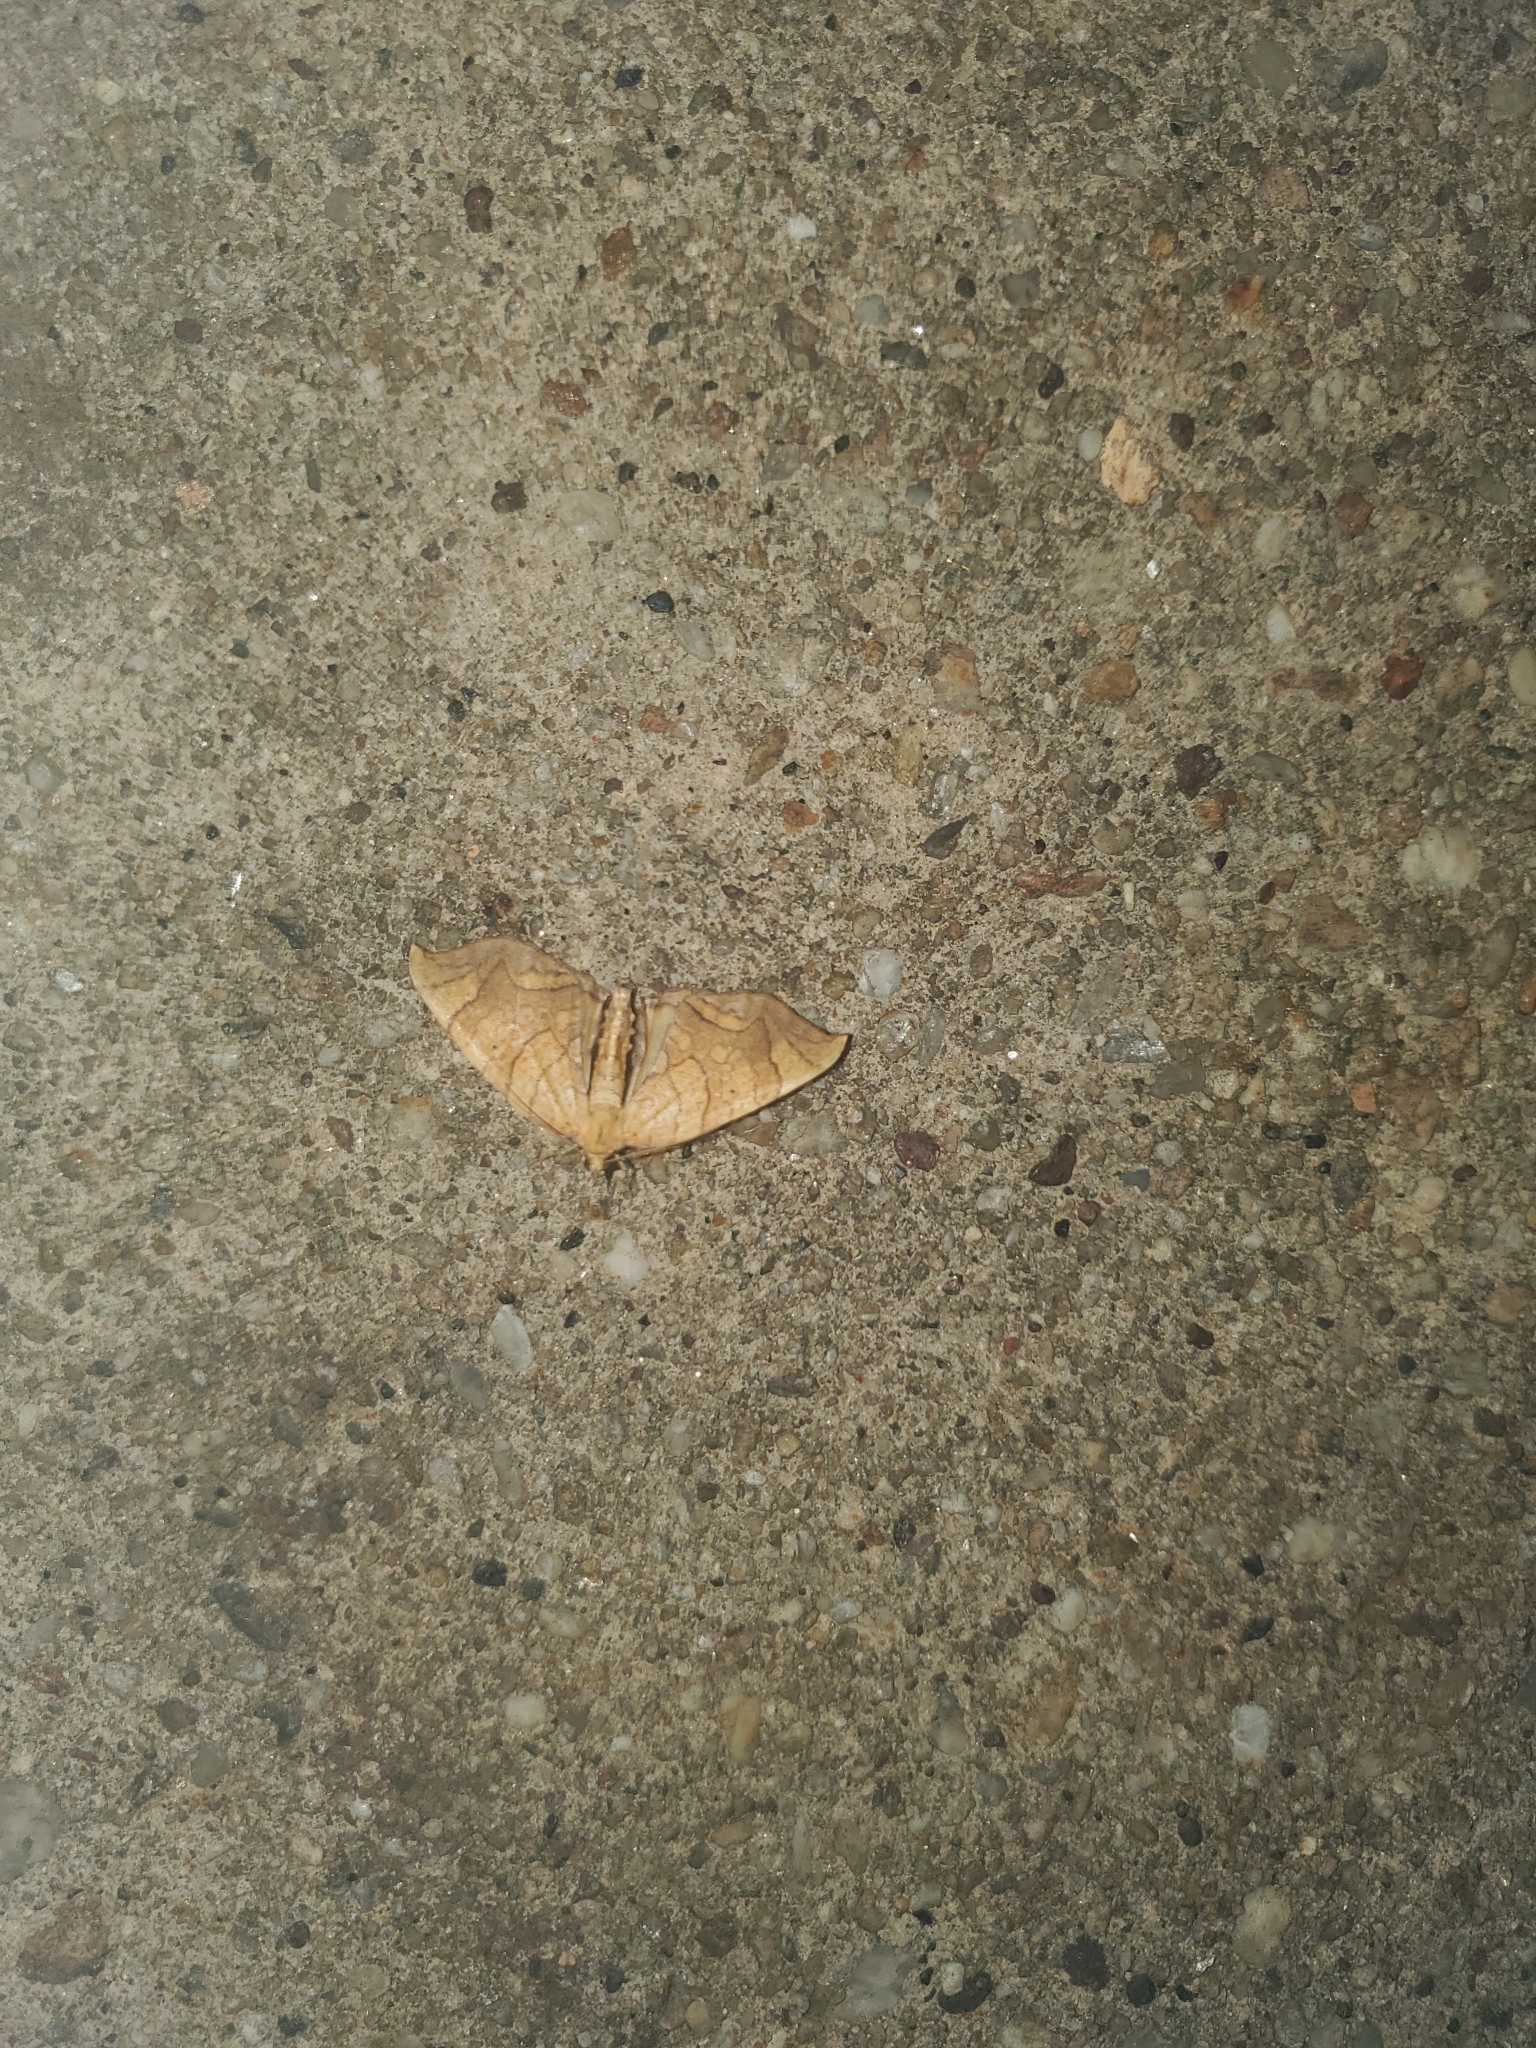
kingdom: Animalia
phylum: Arthropoda
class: Insecta
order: Lepidoptera
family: Geometridae
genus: Eulithis
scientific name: Eulithis gracilineata
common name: Greater grapevine looper moth
